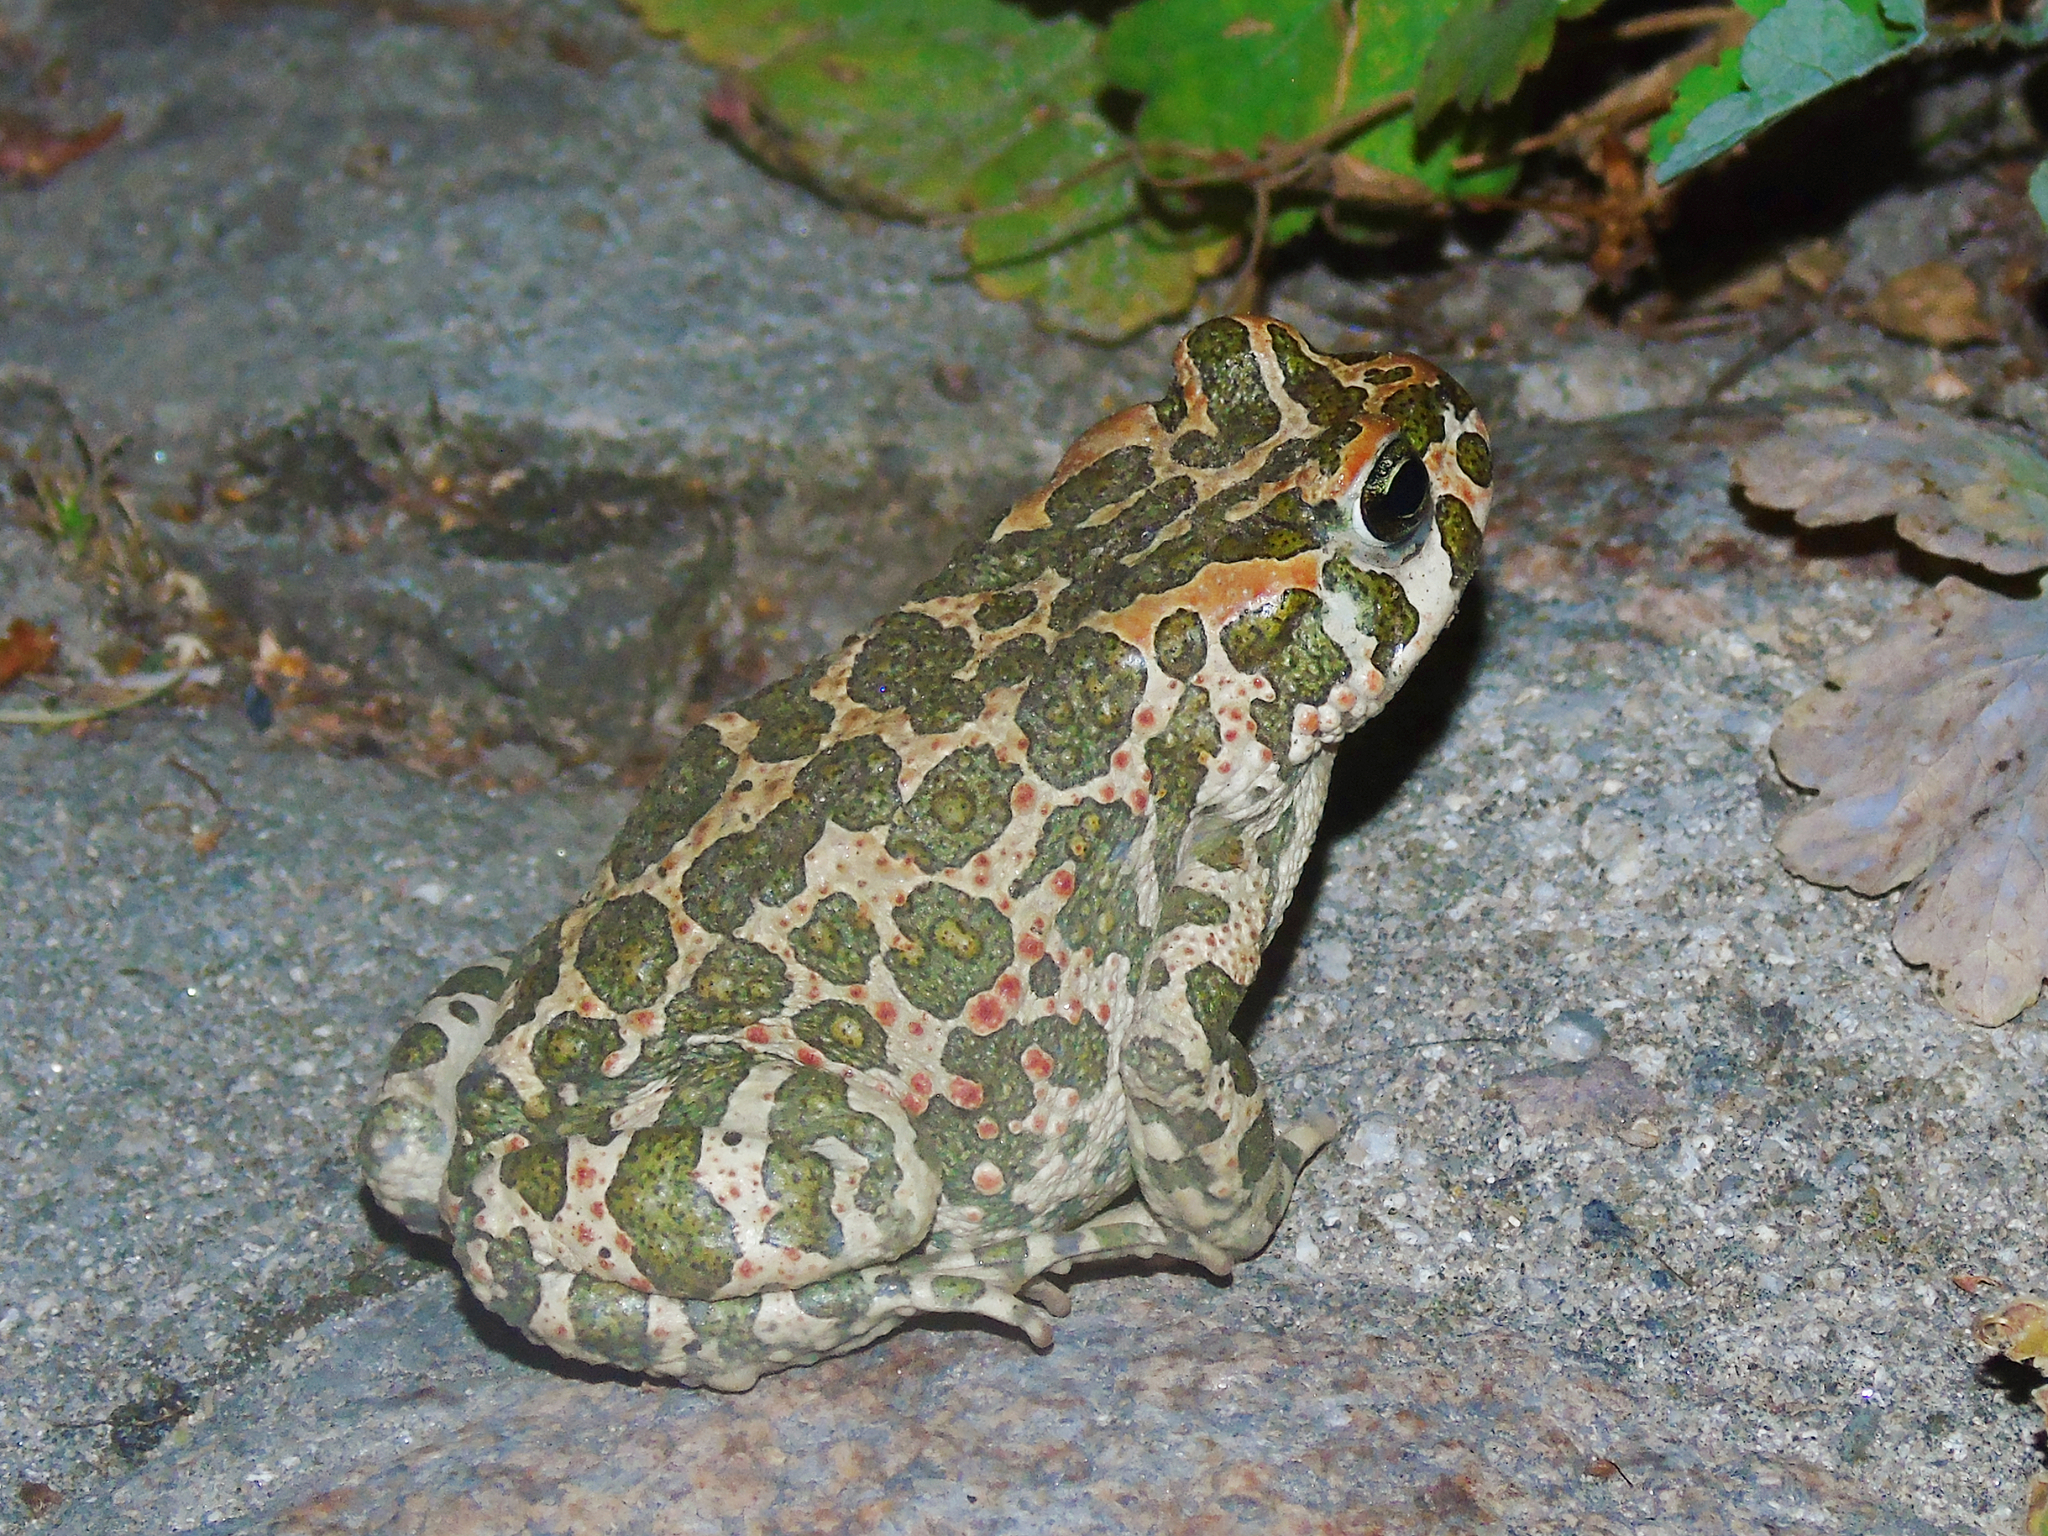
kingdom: Animalia
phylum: Chordata
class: Amphibia
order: Anura
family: Bufonidae
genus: Bufotes
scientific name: Bufotes viridis
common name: European green toad
